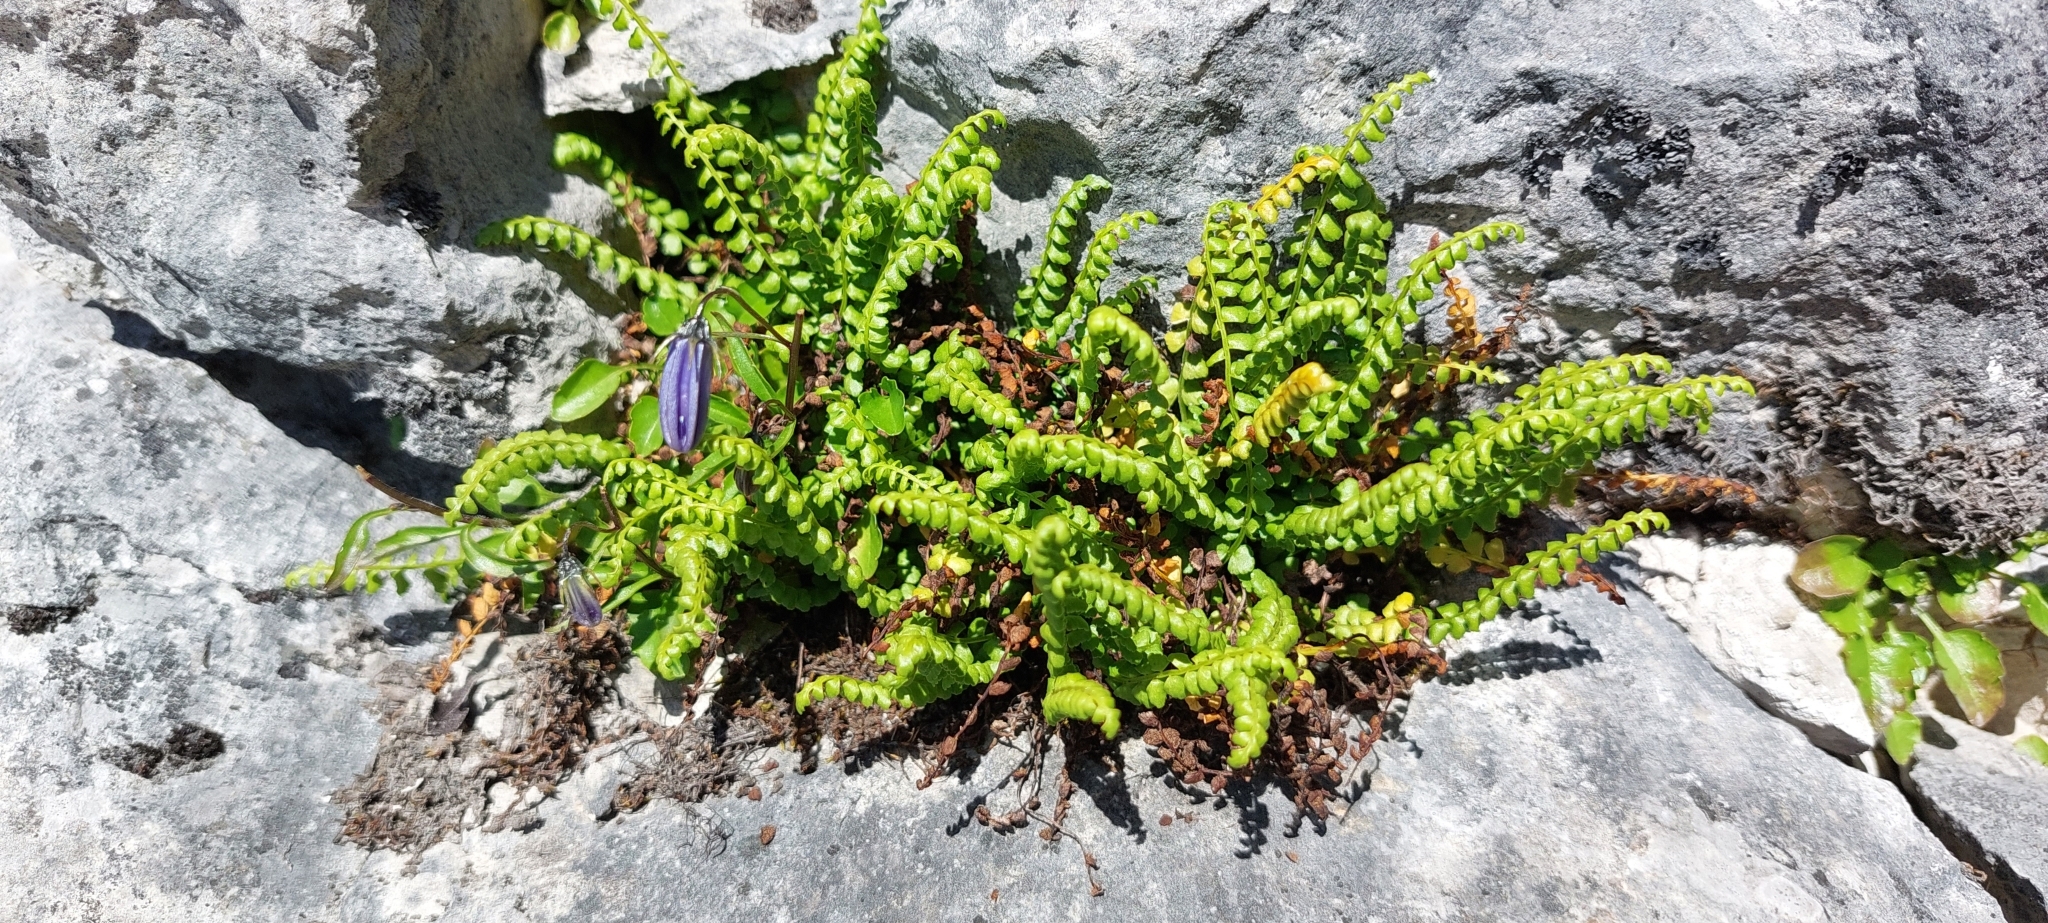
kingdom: Plantae
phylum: Tracheophyta
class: Polypodiopsida
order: Polypodiales
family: Aspleniaceae
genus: Asplenium
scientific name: Asplenium viride
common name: Green spleenwort
